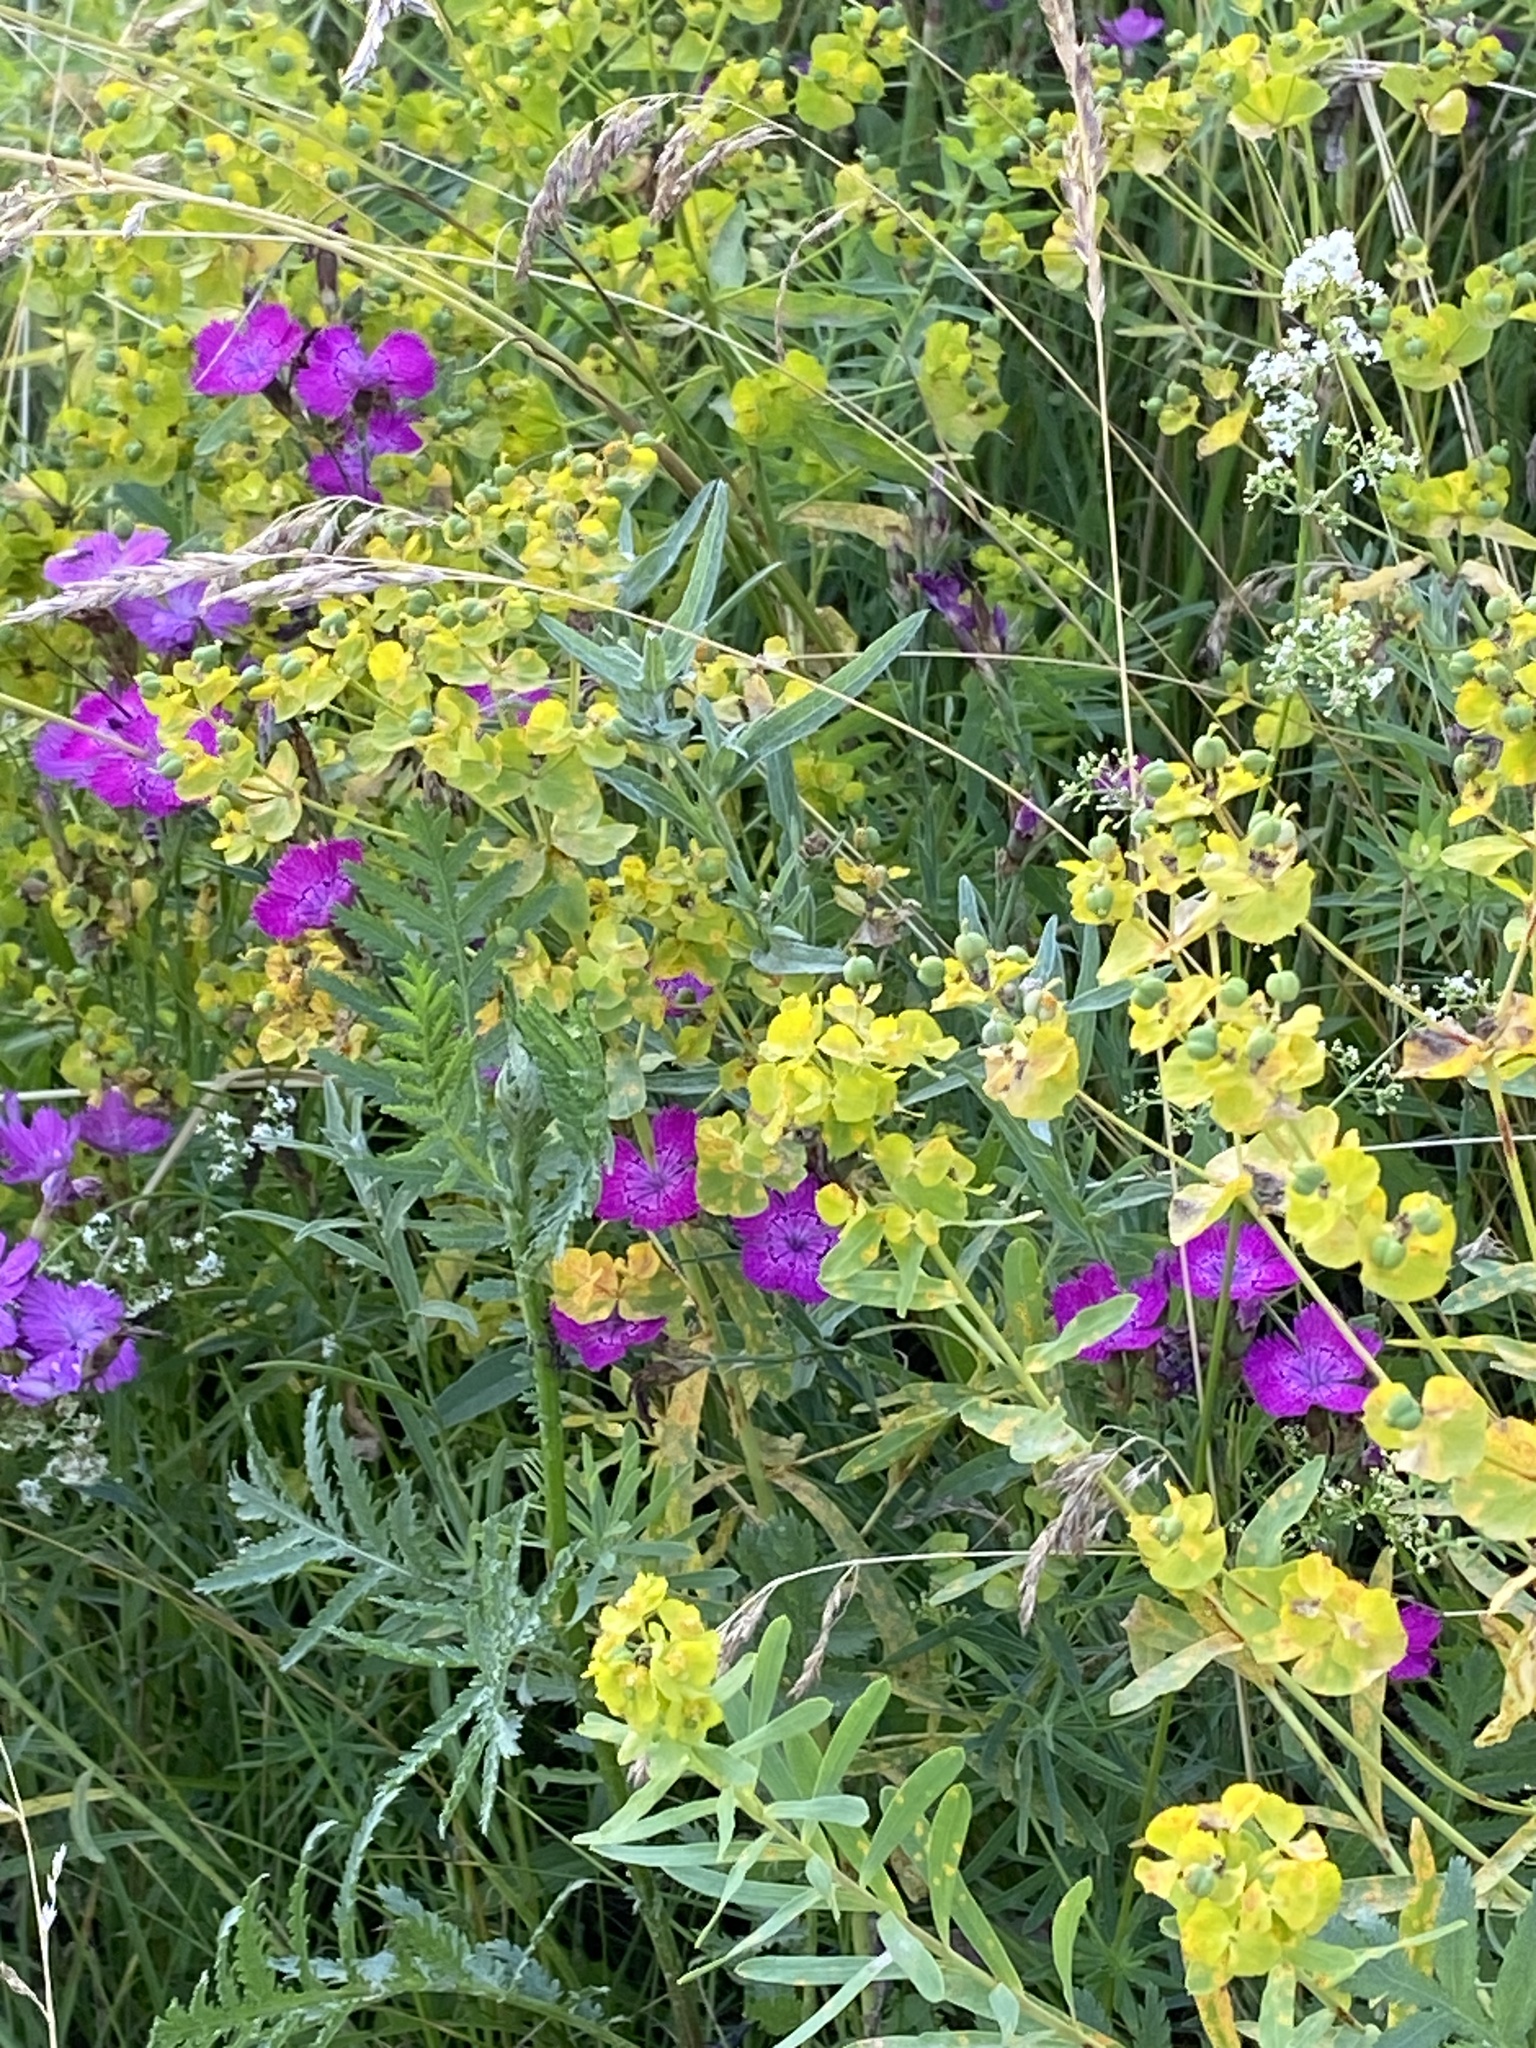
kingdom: Plantae
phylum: Tracheophyta
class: Magnoliopsida
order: Caryophyllales
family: Caryophyllaceae
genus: Dianthus
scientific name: Dianthus chinensis
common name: Rainbow pink
